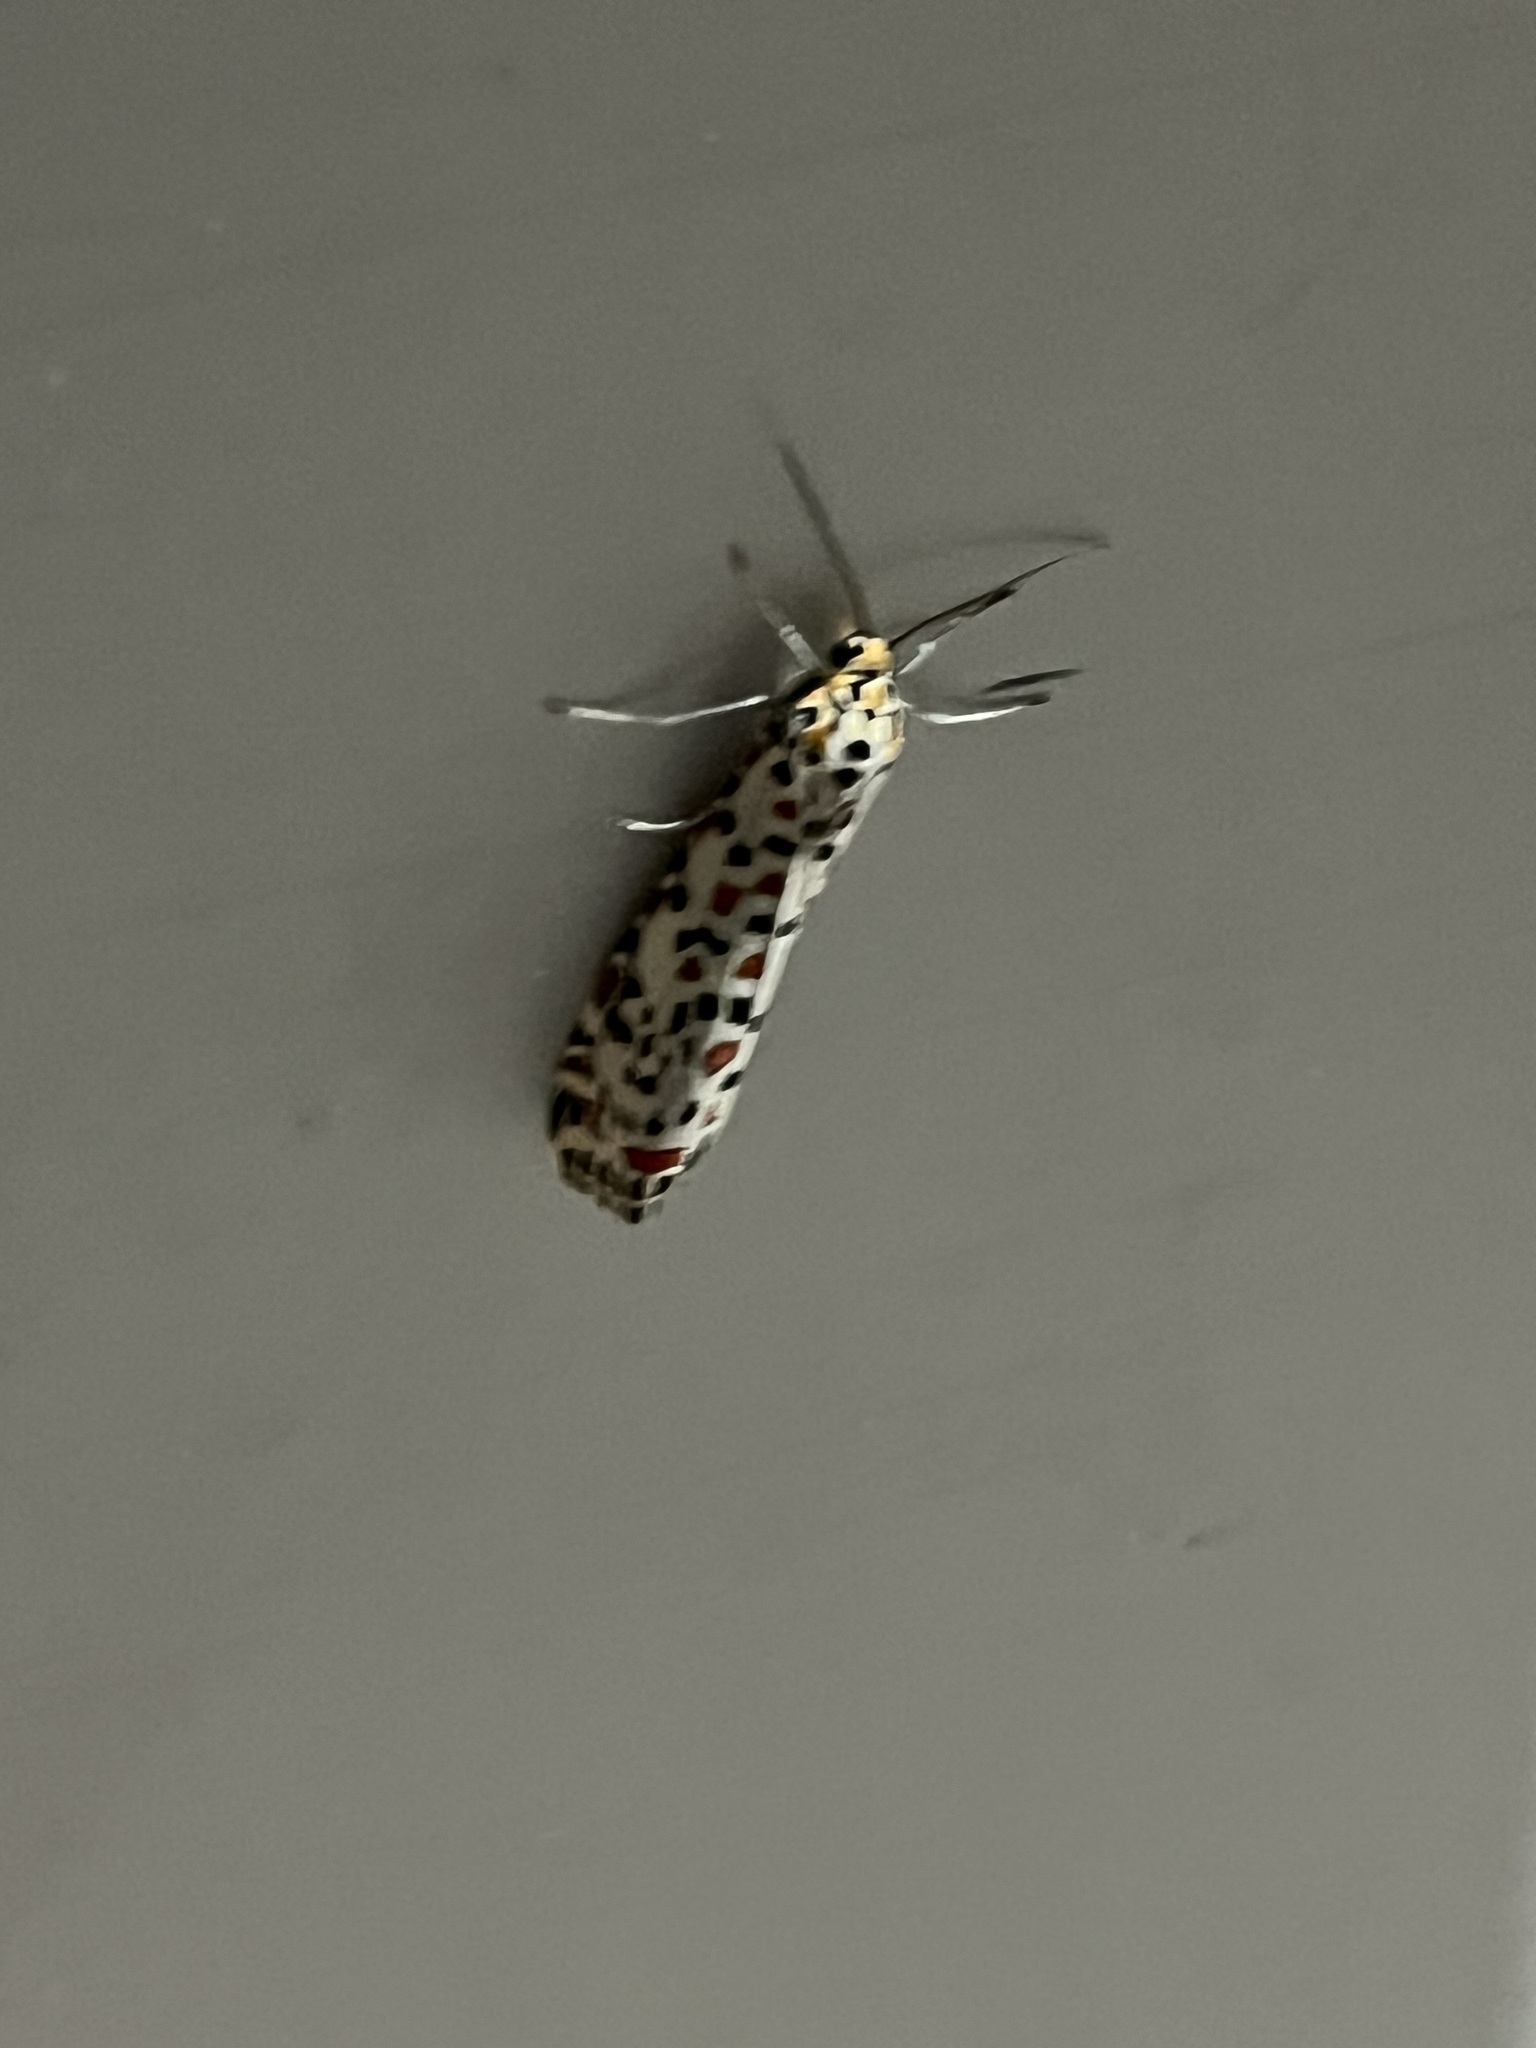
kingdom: Animalia
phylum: Arthropoda
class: Insecta
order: Lepidoptera
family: Erebidae
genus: Utetheisa
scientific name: Utetheisa pulchella
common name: Crimson speckled
